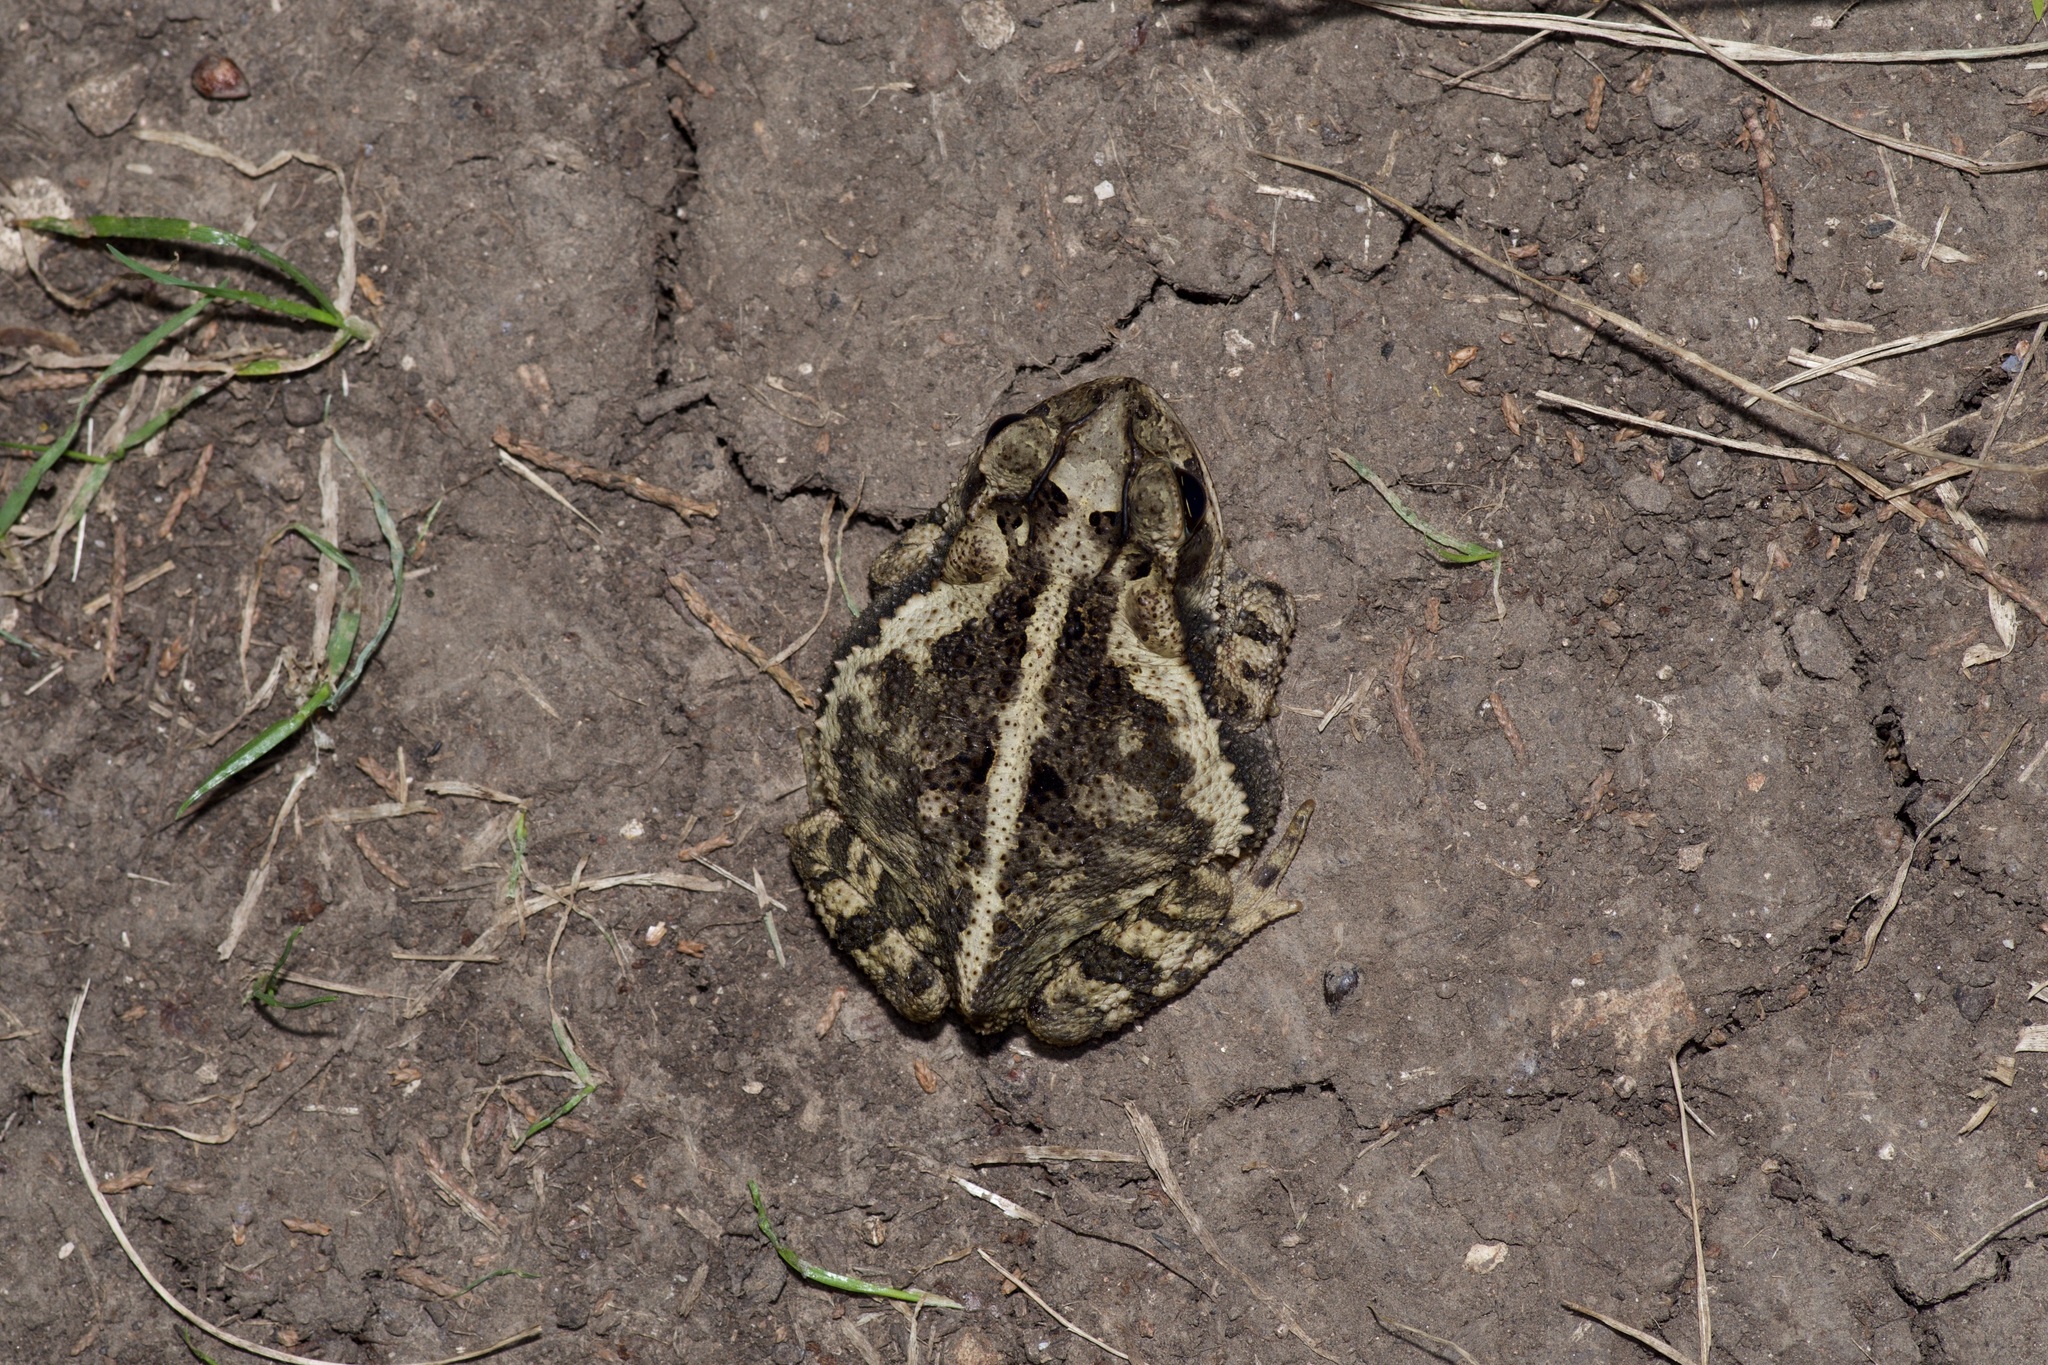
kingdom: Animalia
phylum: Chordata
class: Amphibia
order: Anura
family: Bufonidae
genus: Incilius
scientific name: Incilius nebulifer
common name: Gulf coast toad
